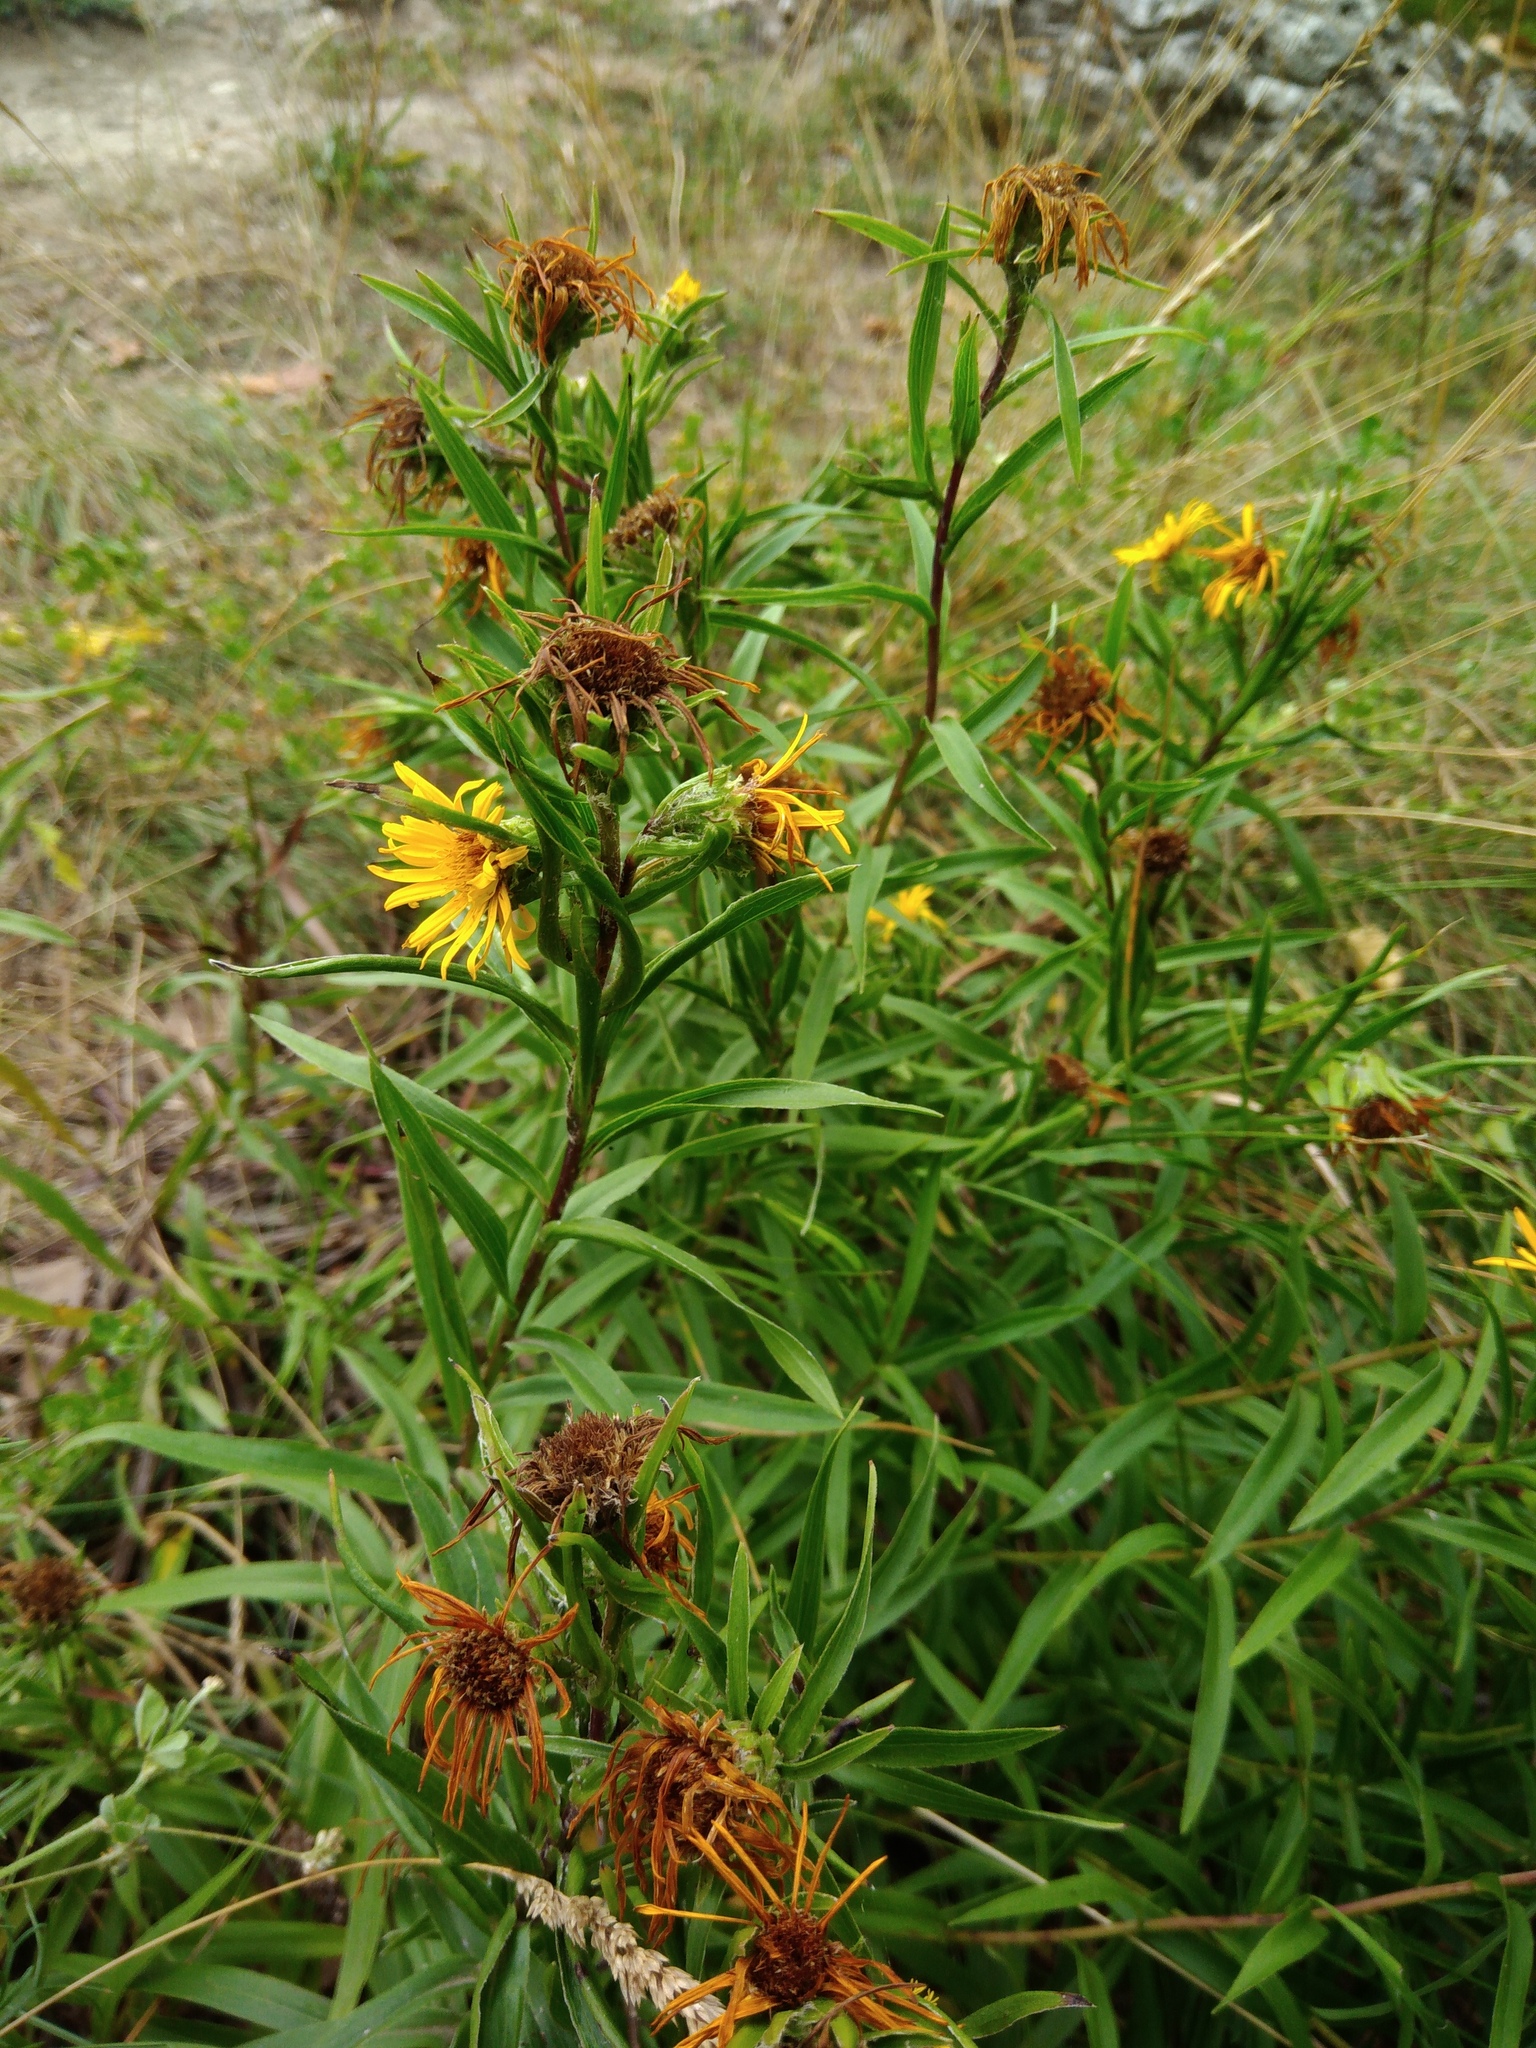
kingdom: Plantae
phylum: Tracheophyta
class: Magnoliopsida
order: Asterales
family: Asteraceae
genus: Pentanema
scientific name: Pentanema ensifolium
